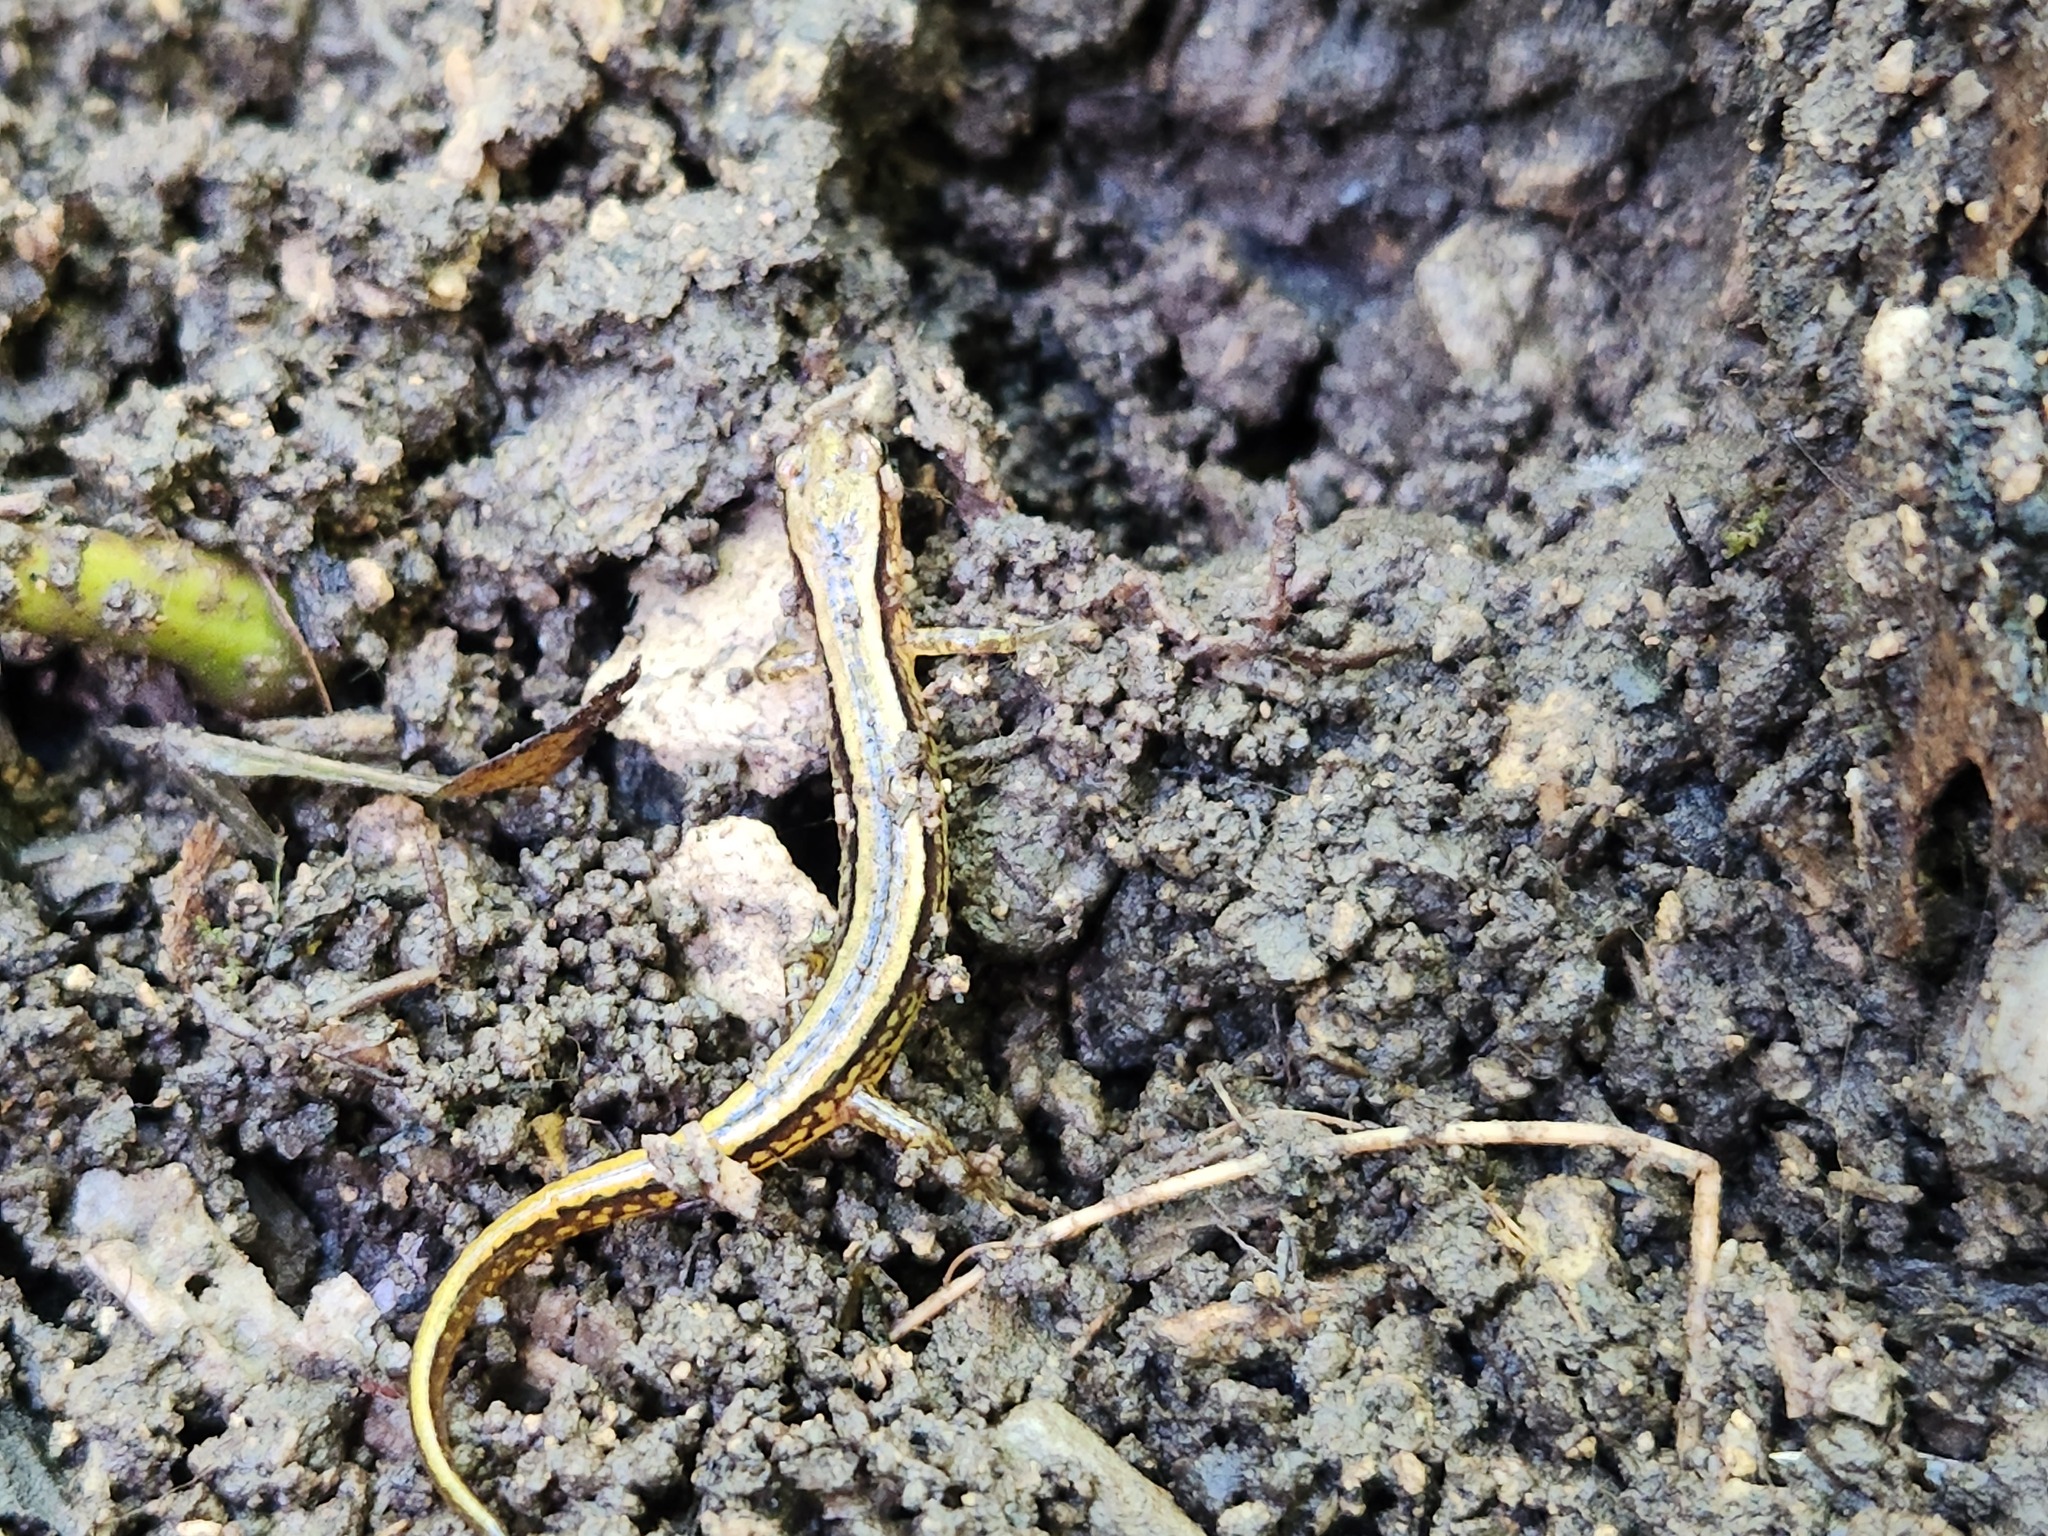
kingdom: Animalia
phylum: Chordata
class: Amphibia
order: Caudata
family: Plethodontidae
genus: Eurycea
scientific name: Eurycea cirrigera
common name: Southern two-lined salamander
